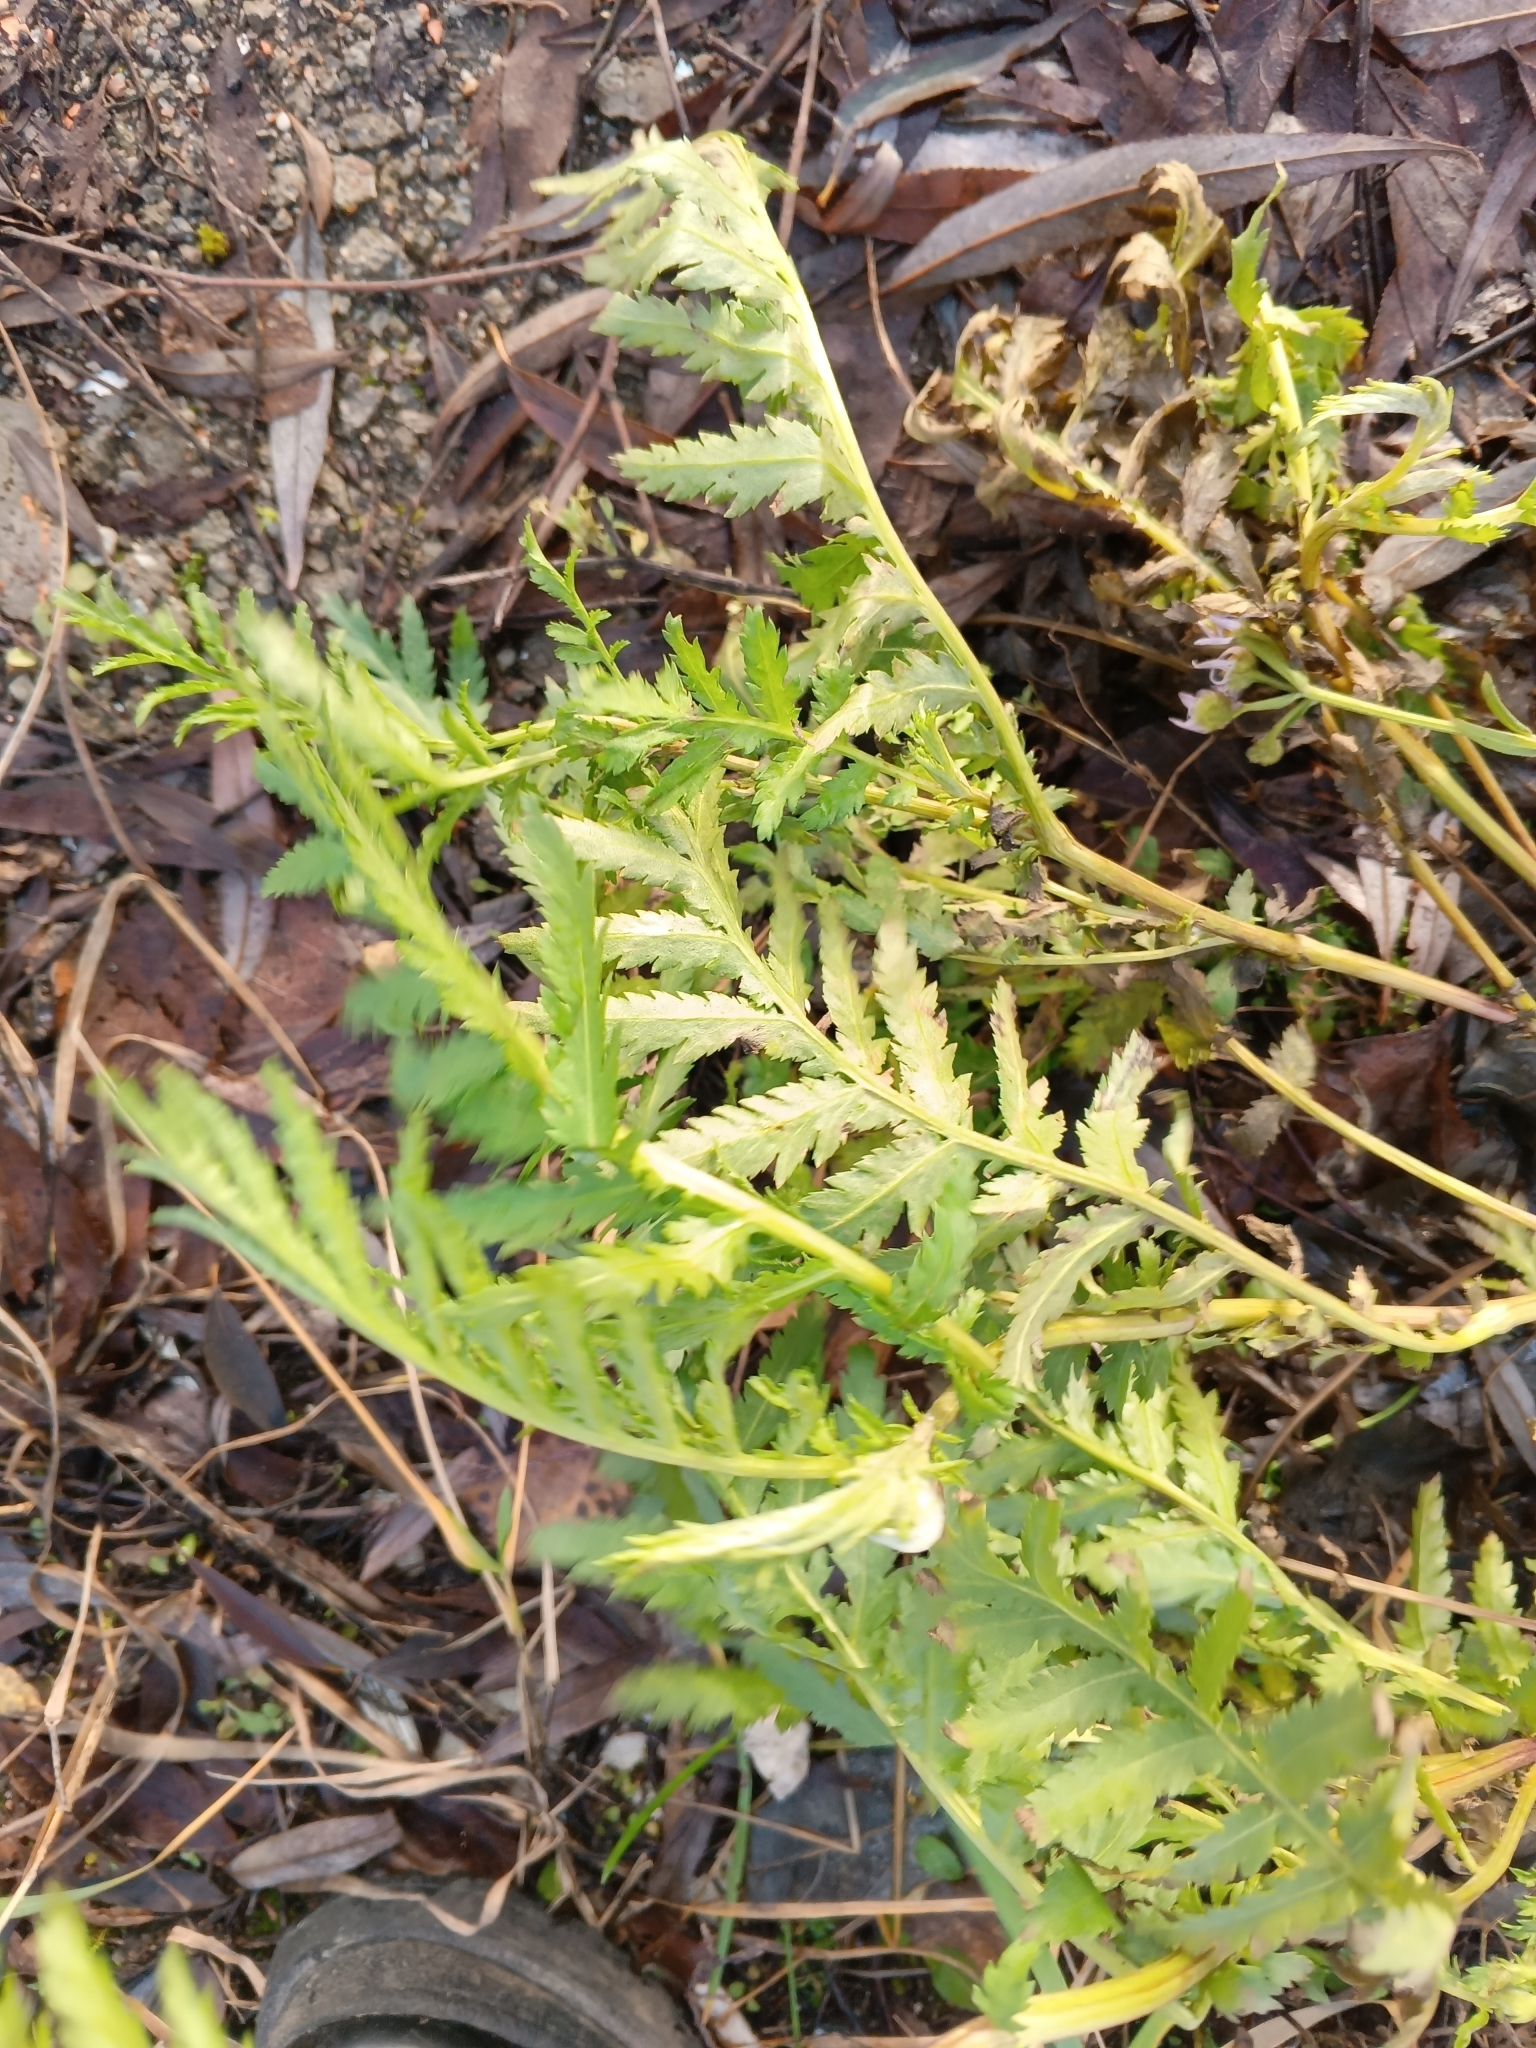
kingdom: Plantae
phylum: Tracheophyta
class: Magnoliopsida
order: Asterales
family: Asteraceae
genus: Tanacetum
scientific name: Tanacetum vulgare
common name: Common tansy
